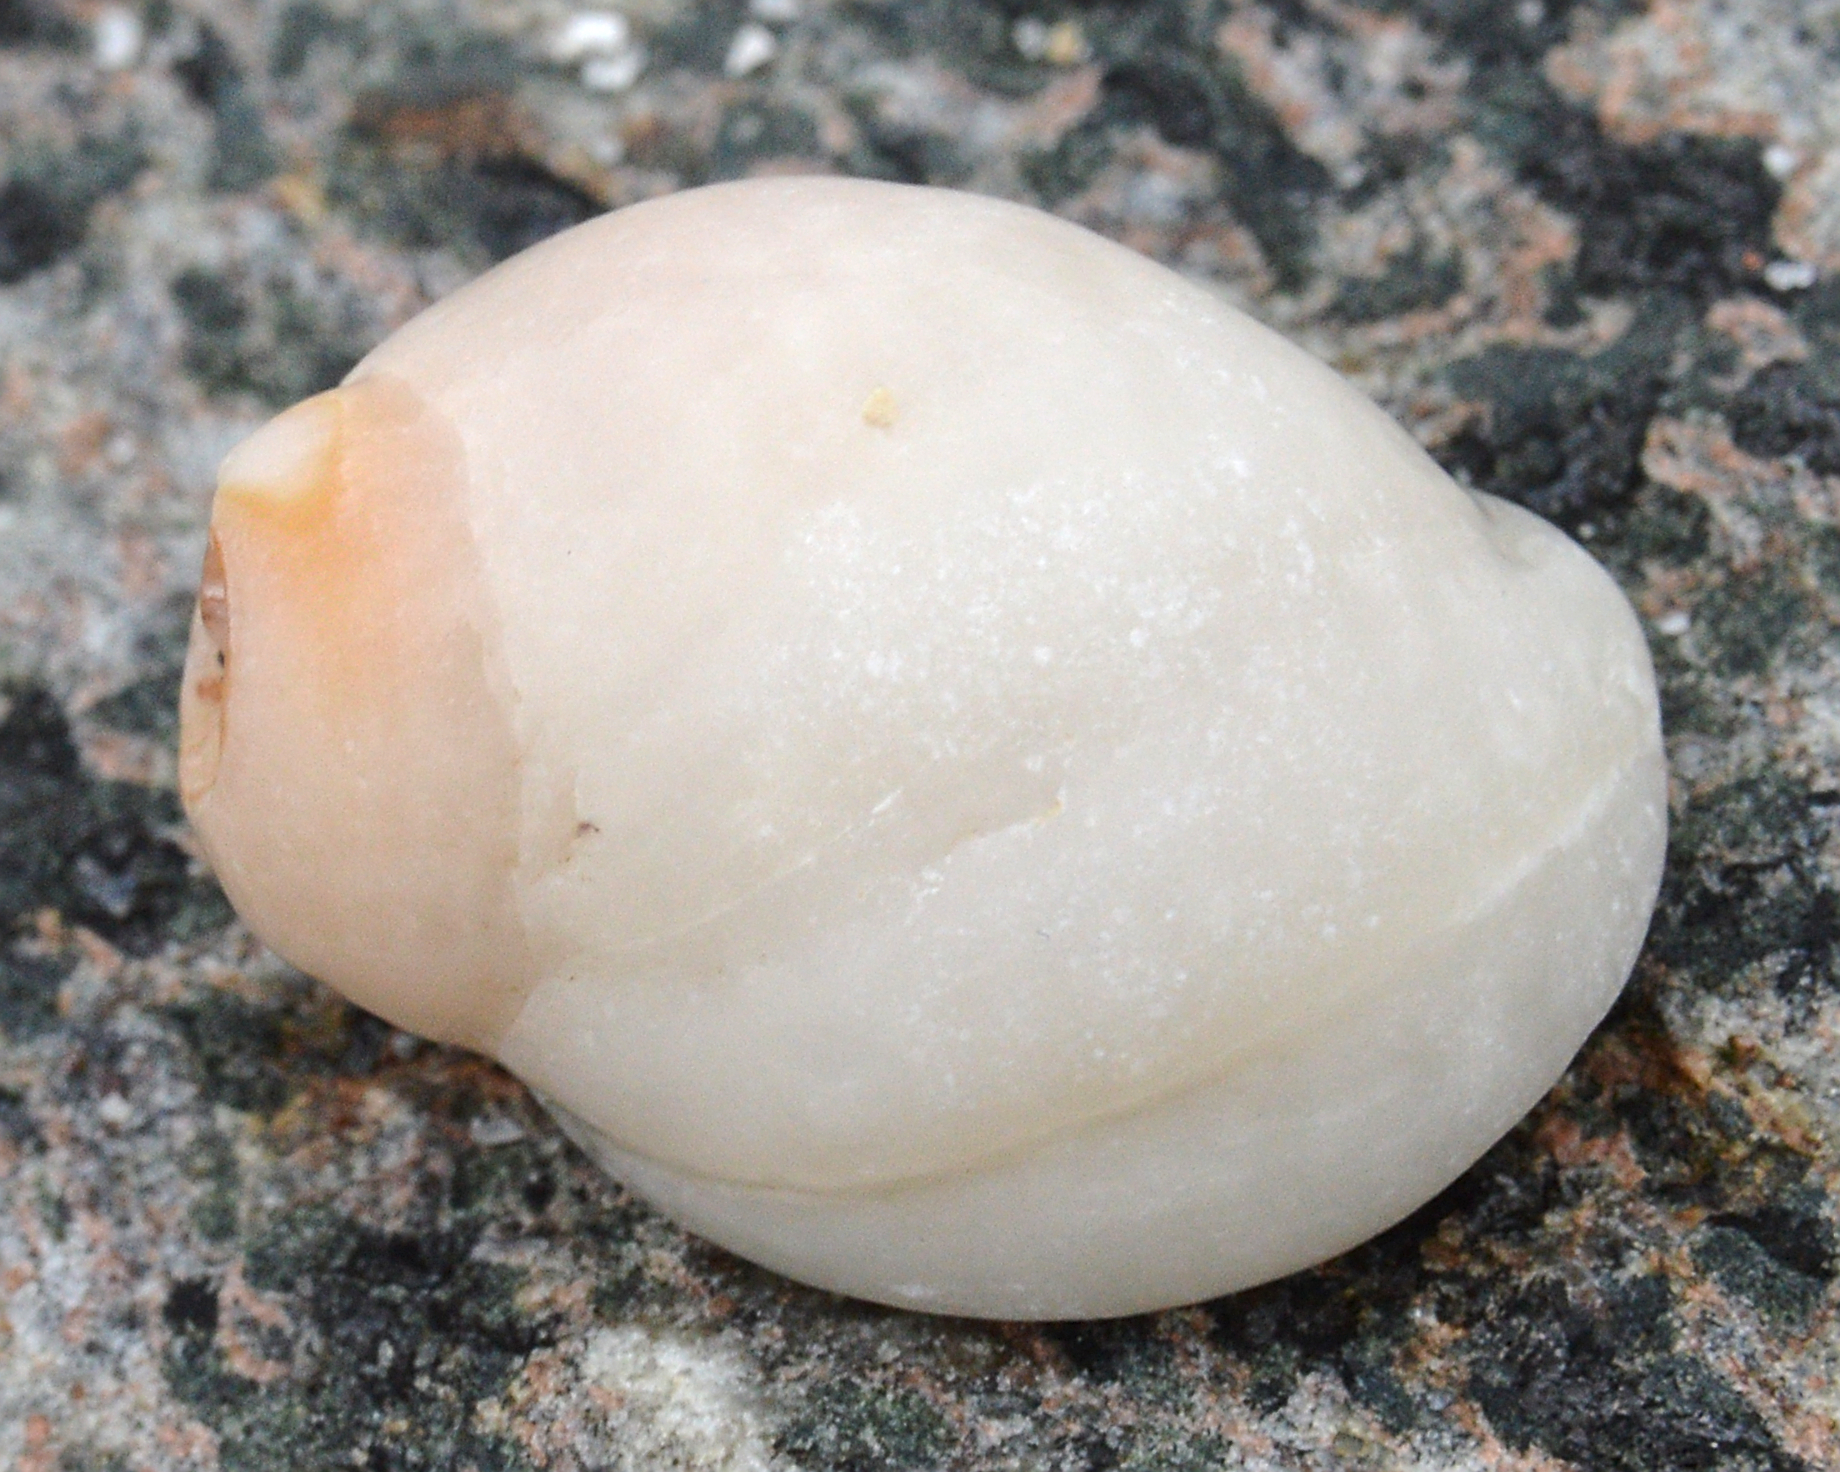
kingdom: Animalia
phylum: Mollusca
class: Gastropoda
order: Neogastropoda
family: Muricidae
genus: Nucella
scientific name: Nucella lapillus
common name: Dog whelk
